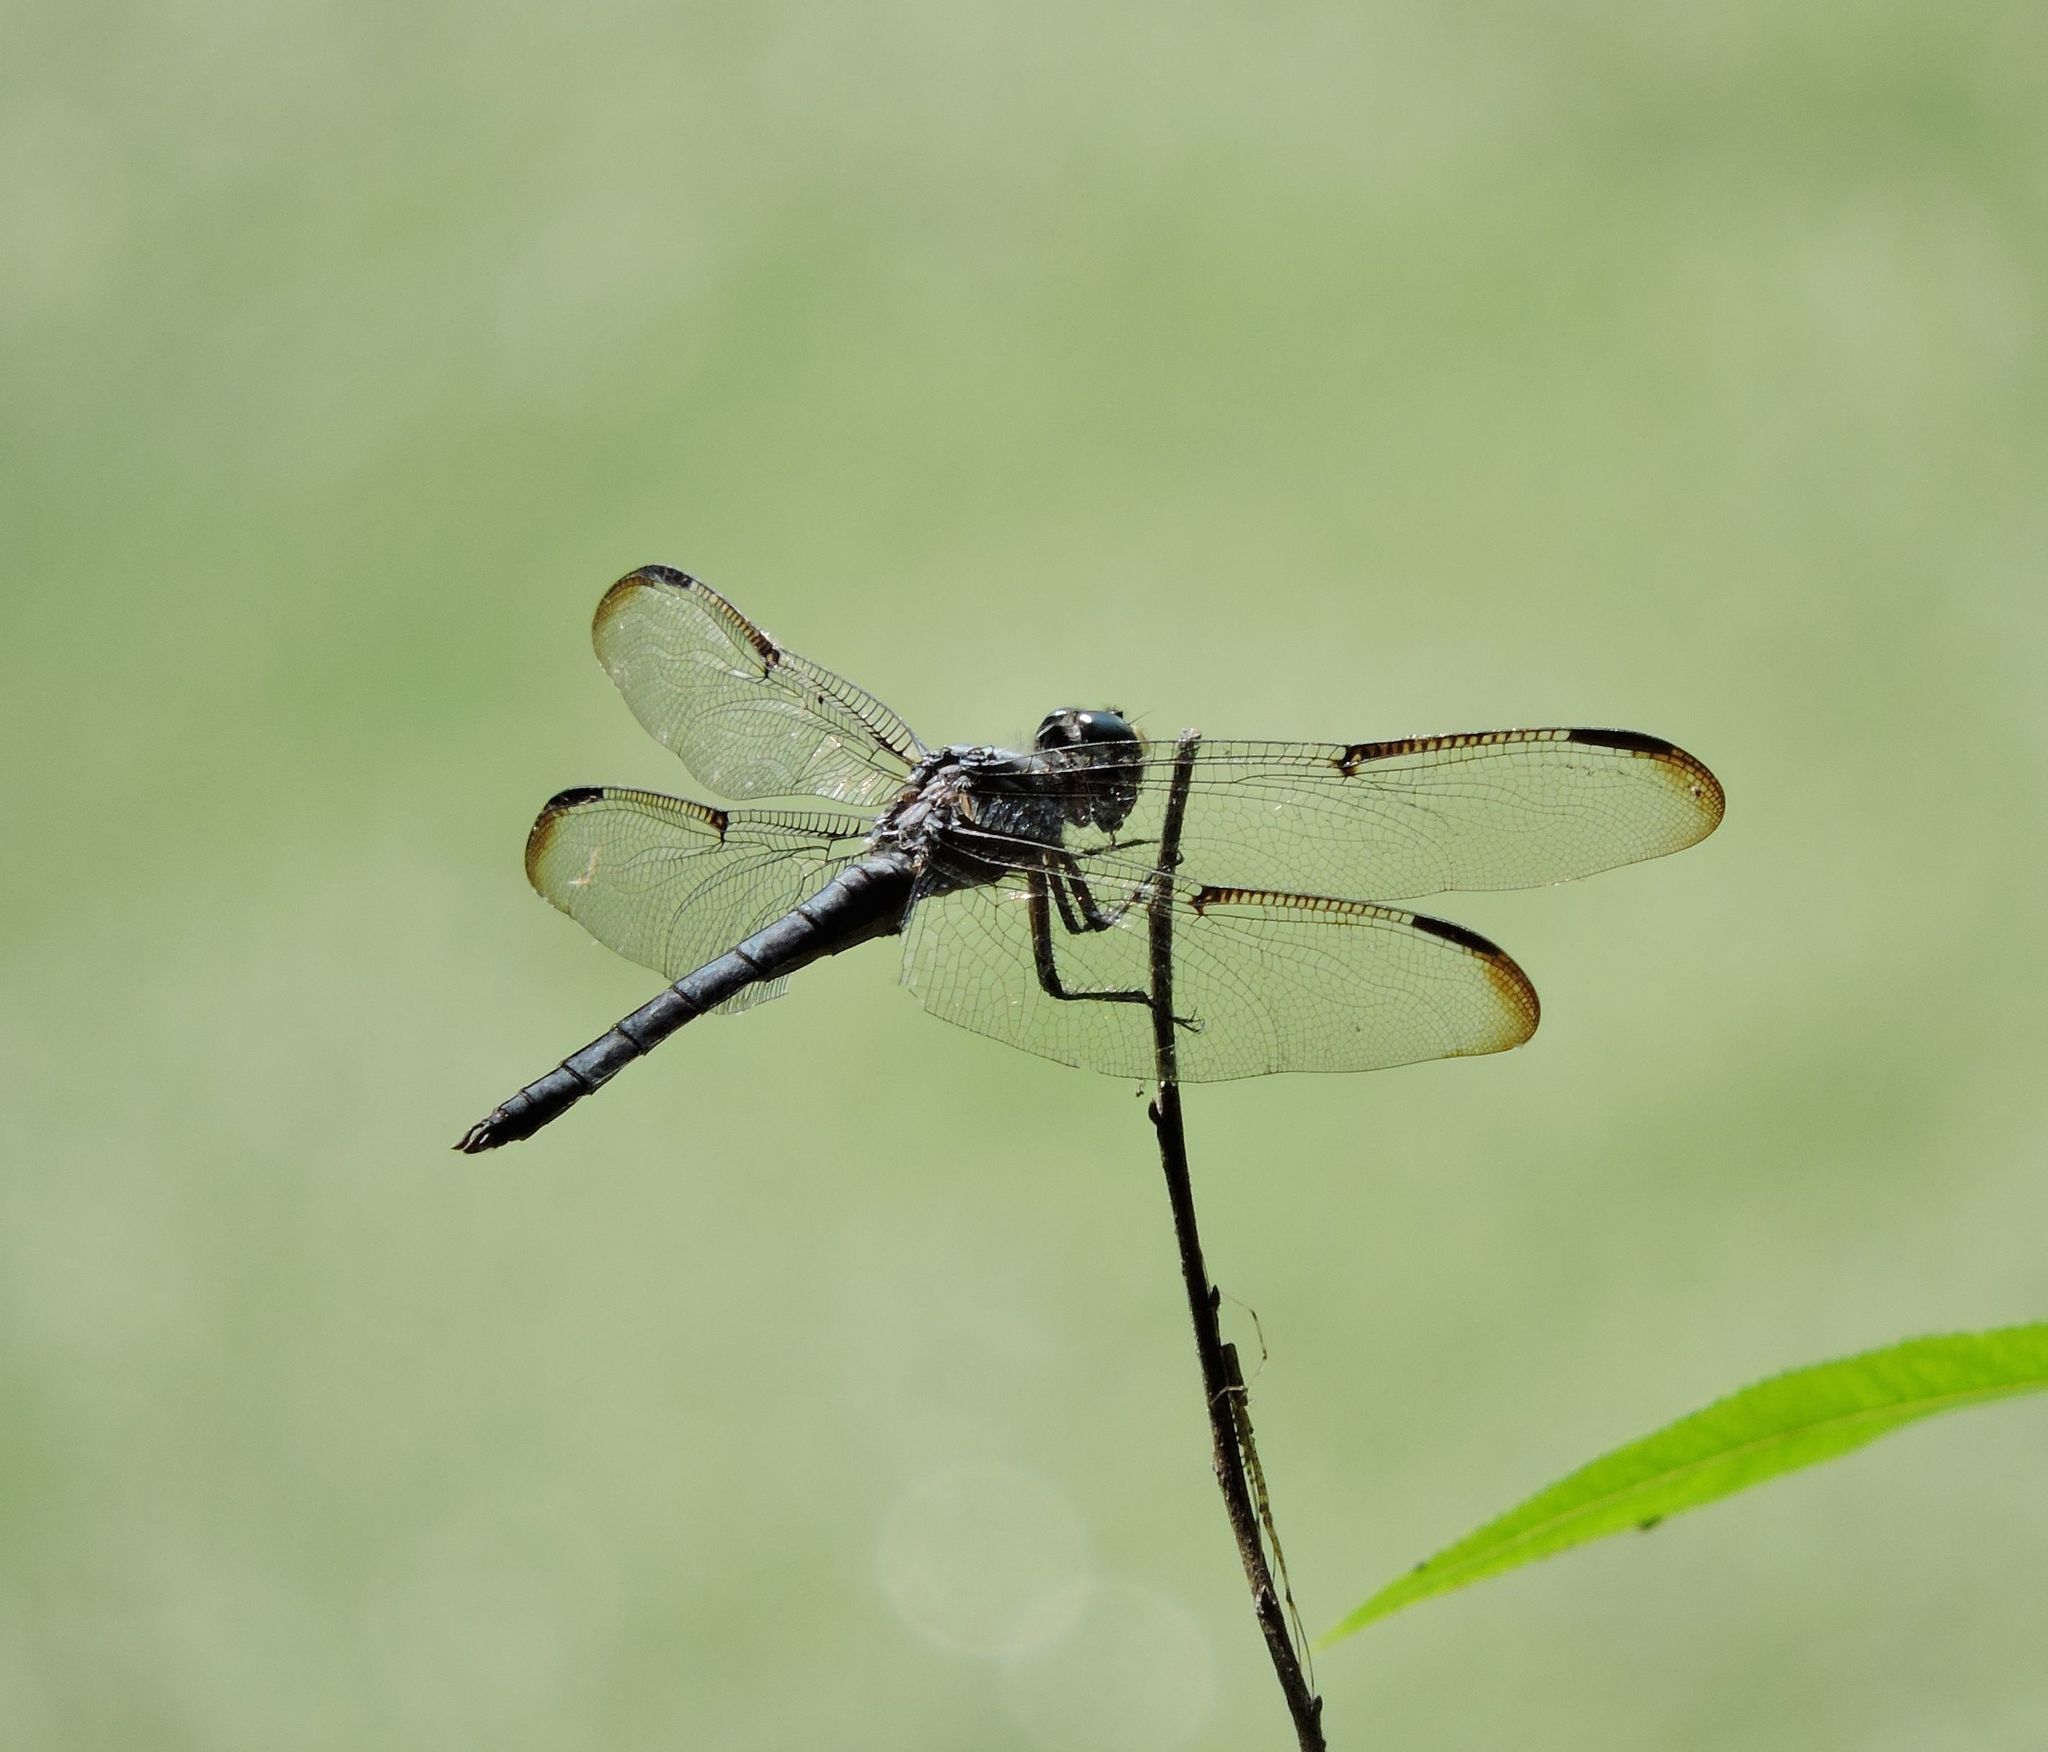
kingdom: Animalia
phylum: Arthropoda
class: Insecta
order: Odonata
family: Libellulidae
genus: Libellula
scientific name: Libellula vibrans
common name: Great blue skimmer
